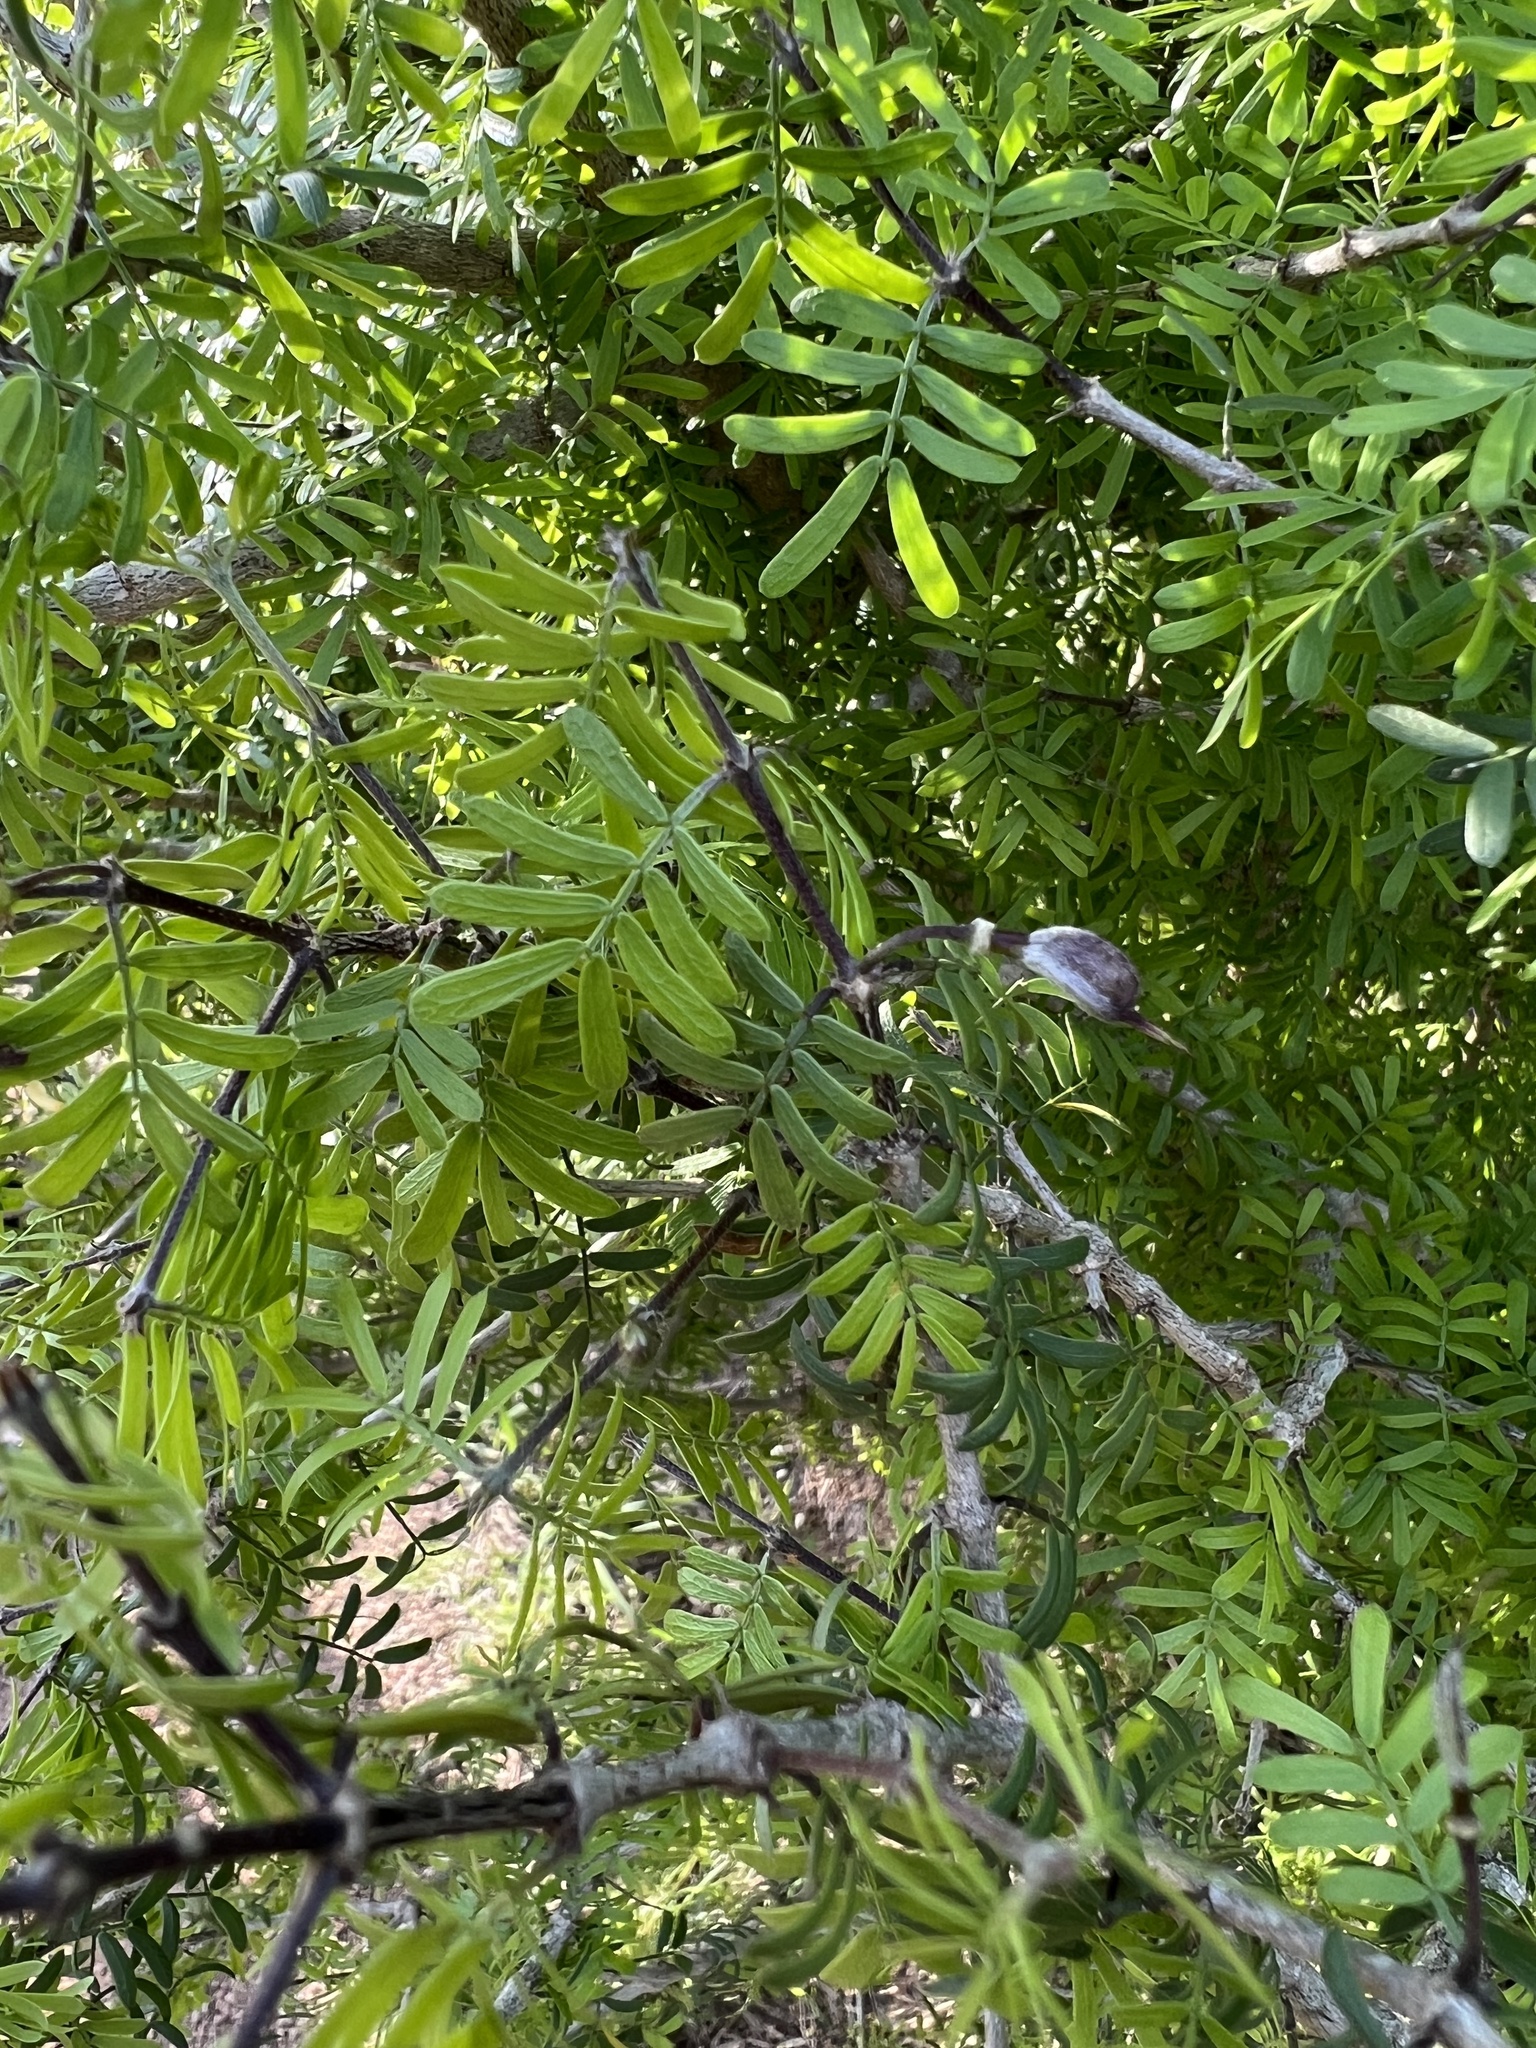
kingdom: Plantae
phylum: Tracheophyta
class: Magnoliopsida
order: Zygophyllales
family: Zygophyllaceae
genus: Porlieria
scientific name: Porlieria angustifolia
